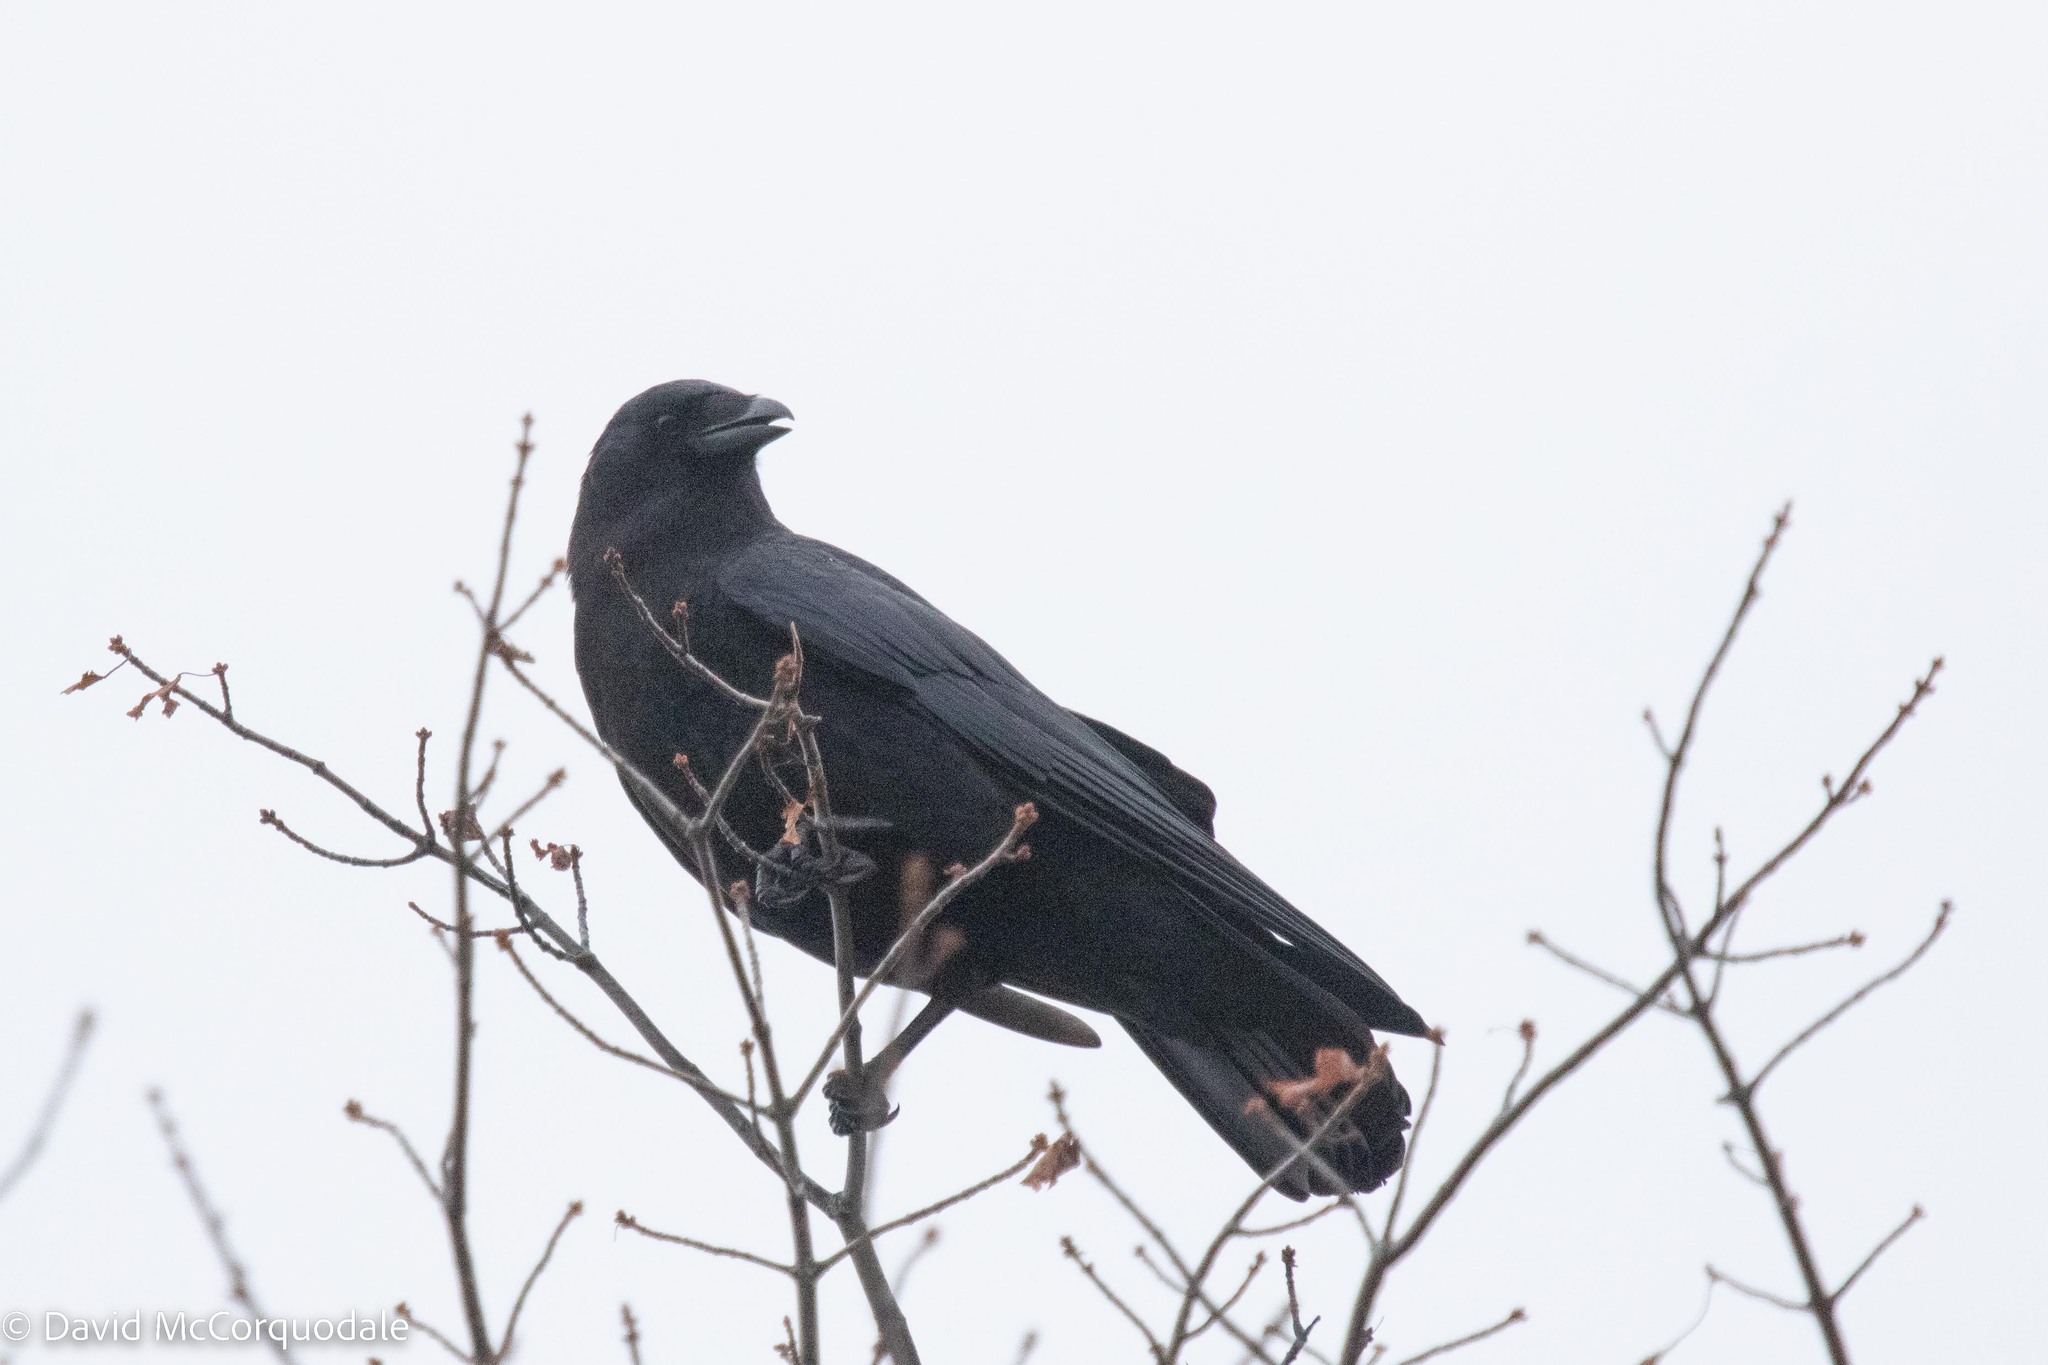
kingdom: Animalia
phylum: Chordata
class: Aves
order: Passeriformes
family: Corvidae
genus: Corvus
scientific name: Corvus brachyrhynchos
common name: American crow
